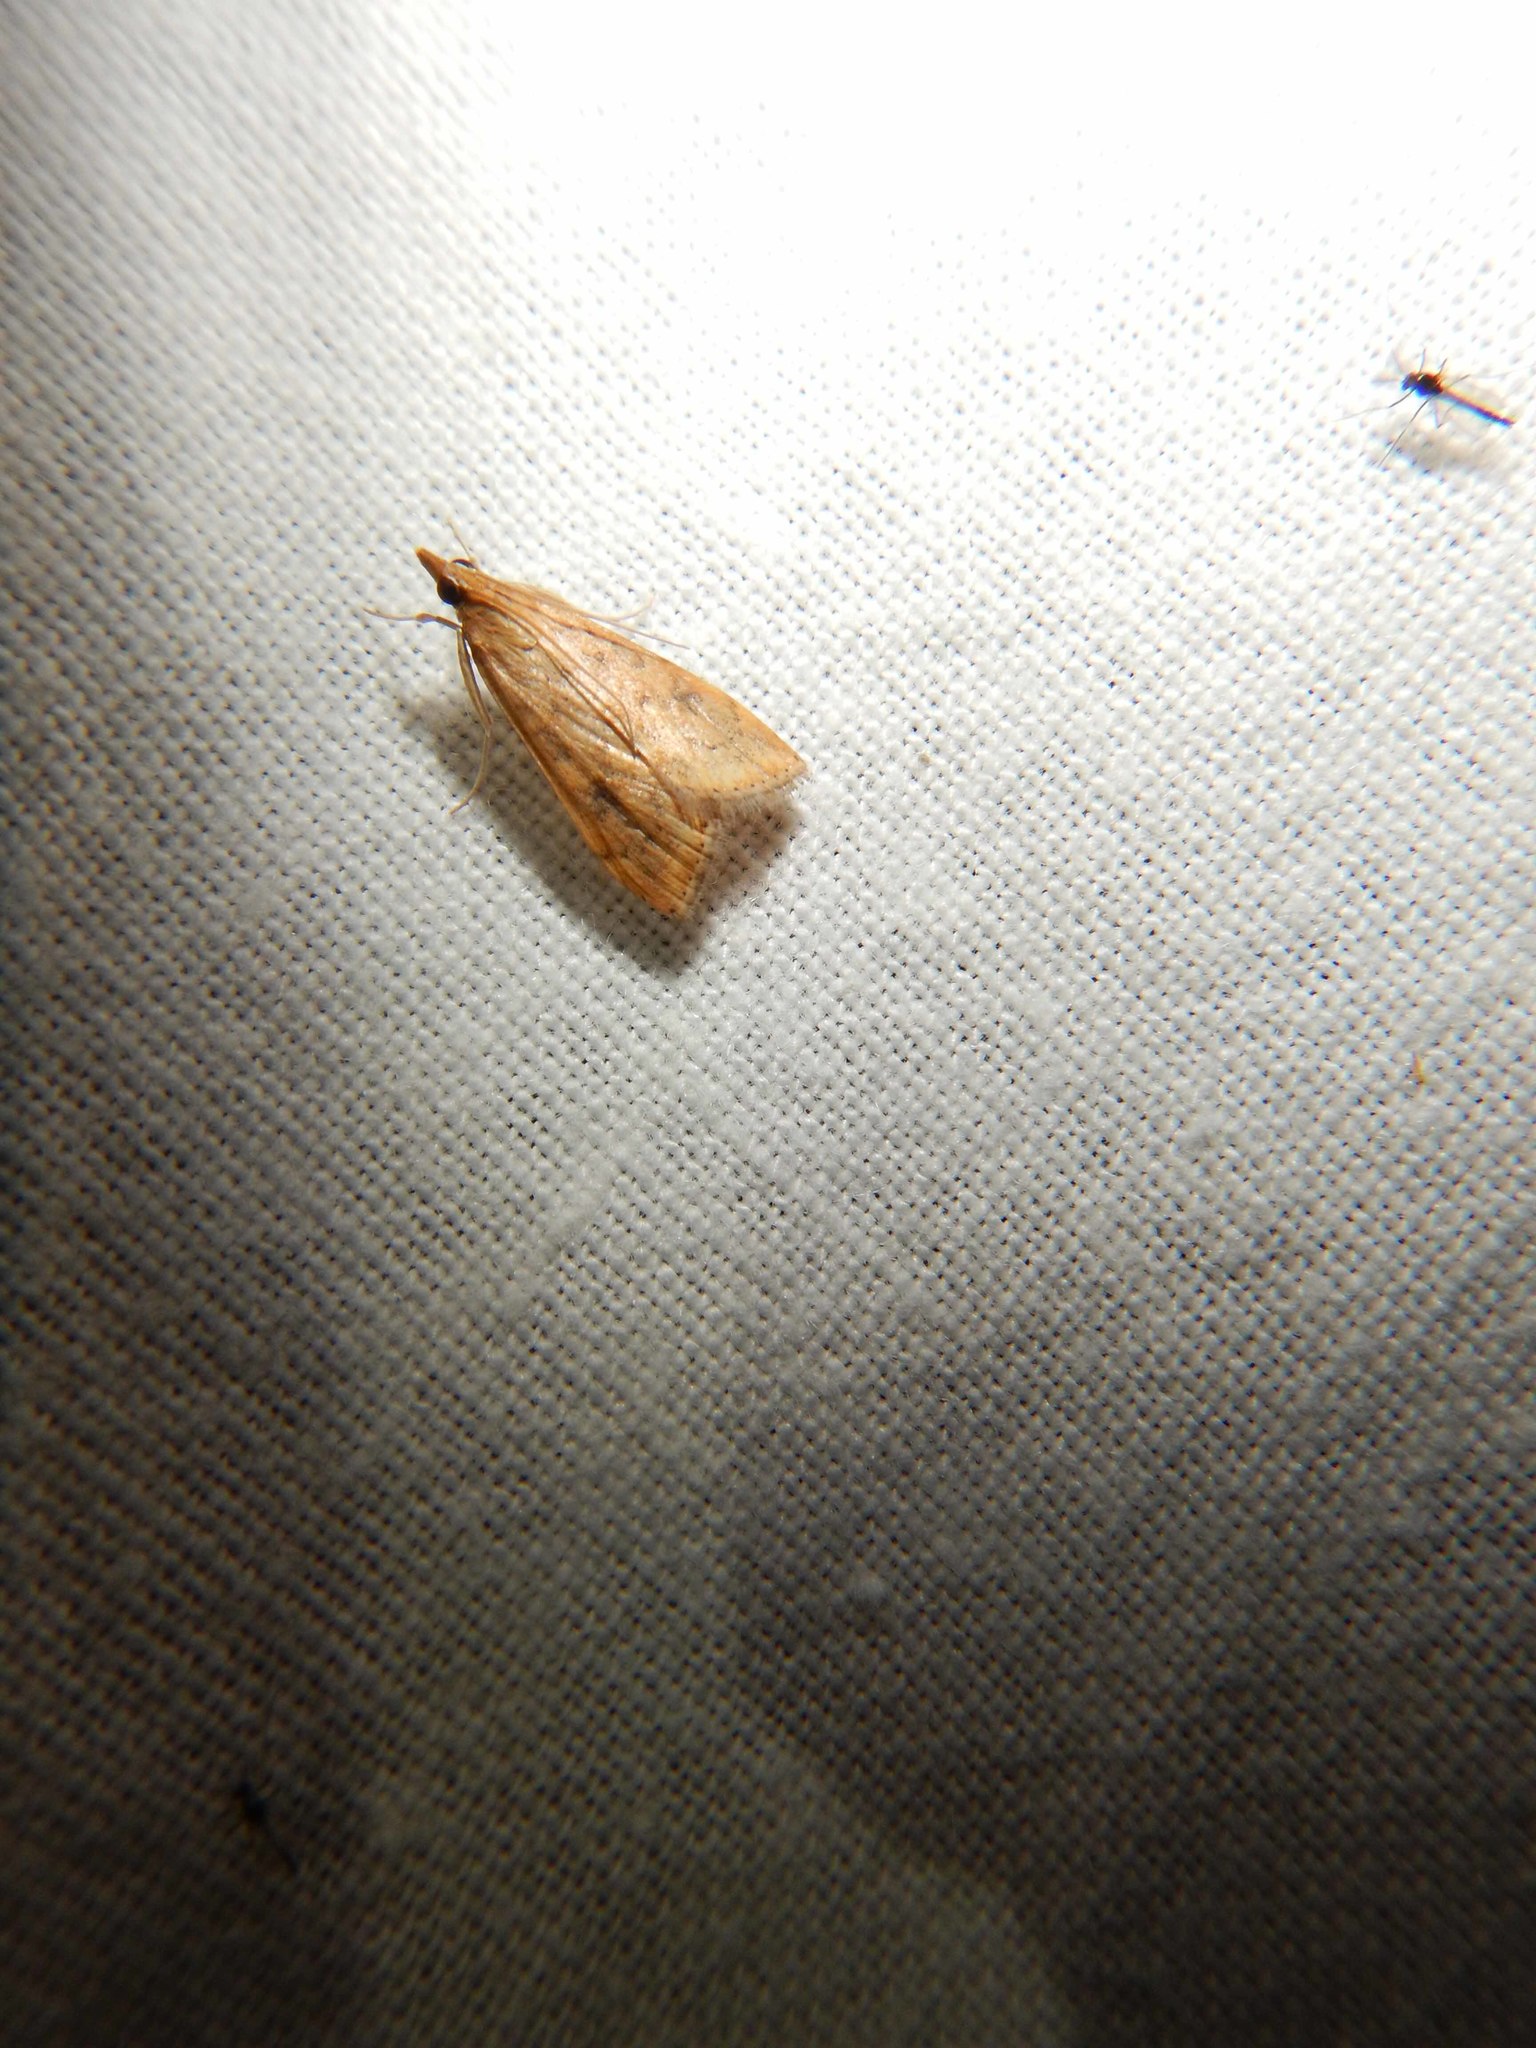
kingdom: Animalia
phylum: Arthropoda
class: Insecta
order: Lepidoptera
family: Crambidae
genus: Udea
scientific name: Udea ferrugalis
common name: Rusty dot
